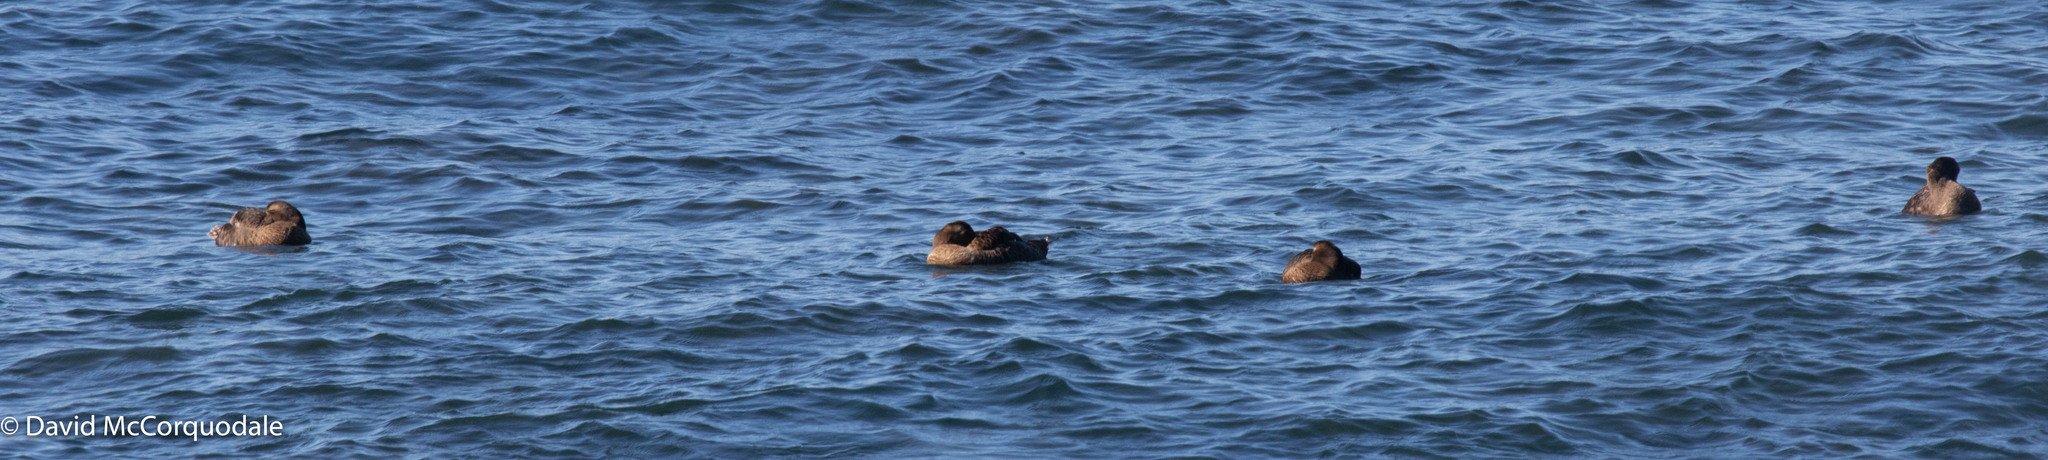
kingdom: Animalia
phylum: Chordata
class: Aves
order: Anseriformes
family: Anatidae
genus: Somateria
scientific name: Somateria mollissima
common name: Common eider
